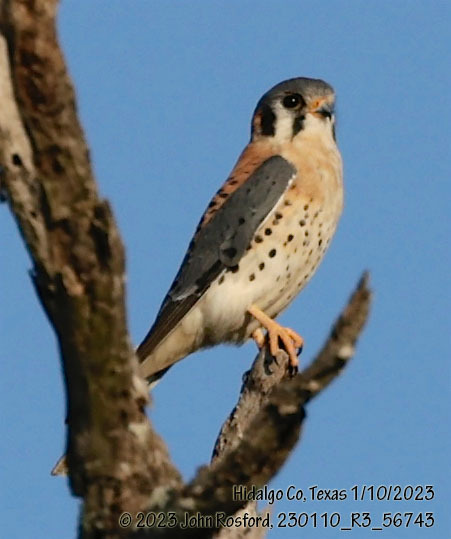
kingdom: Animalia
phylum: Chordata
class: Aves
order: Falconiformes
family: Falconidae
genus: Falco
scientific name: Falco sparverius
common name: American kestrel
